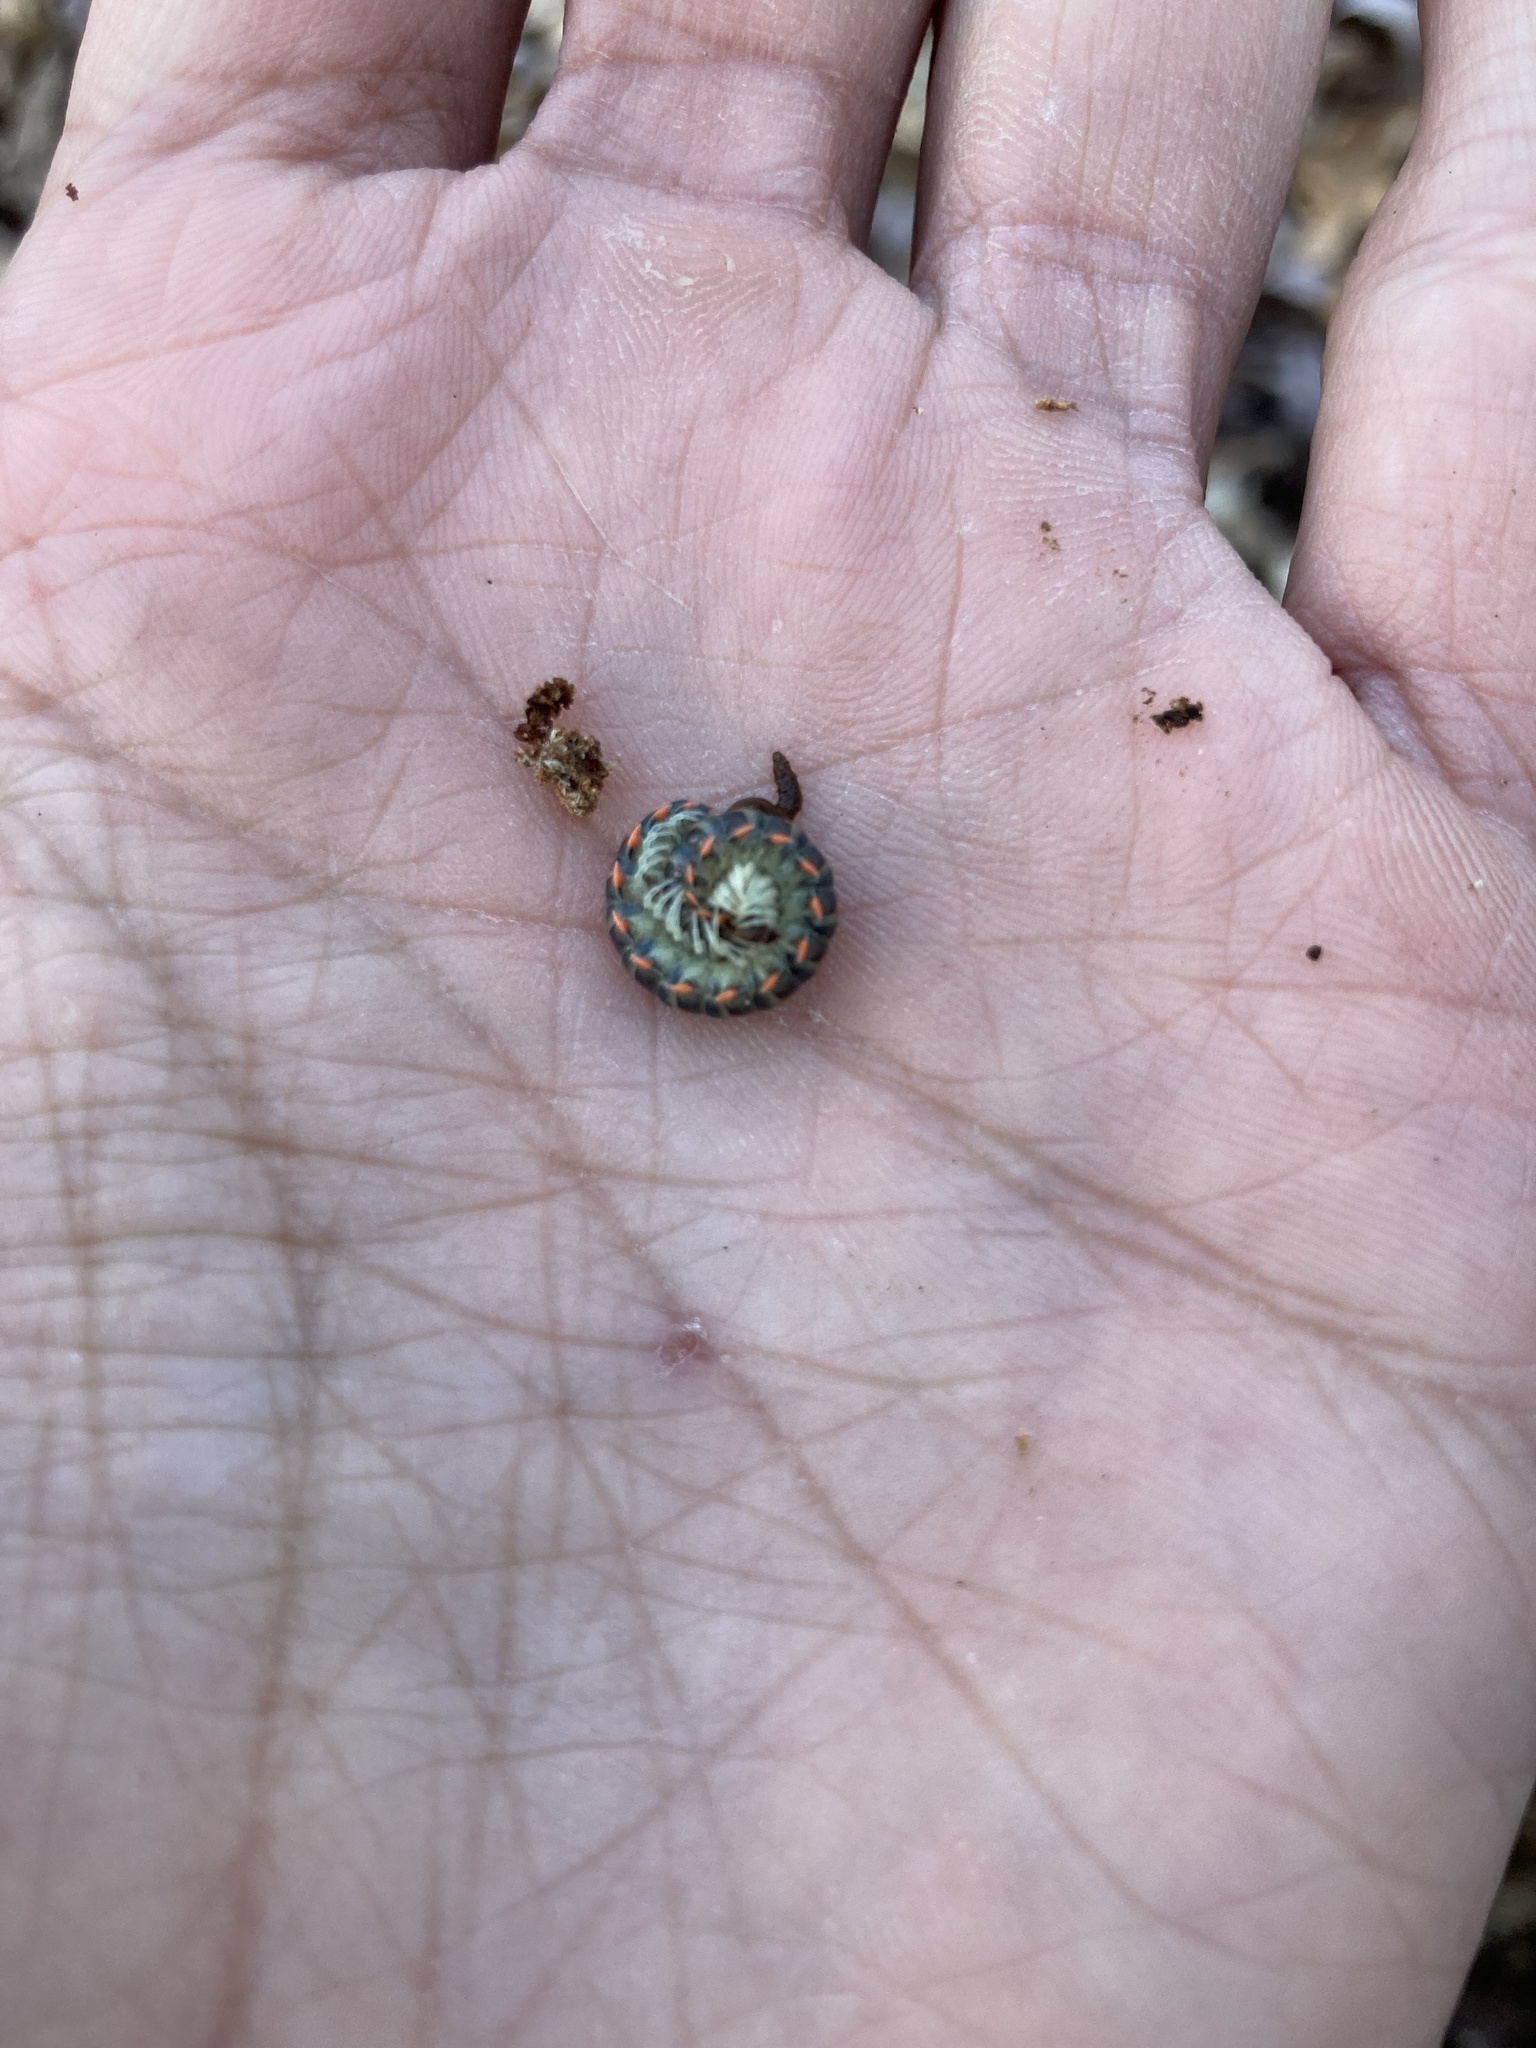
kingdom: Animalia
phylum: Arthropoda
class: Diplopoda
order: Polydesmida
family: Xystodesmidae
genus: Euryurus
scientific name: Euryurus leachii
